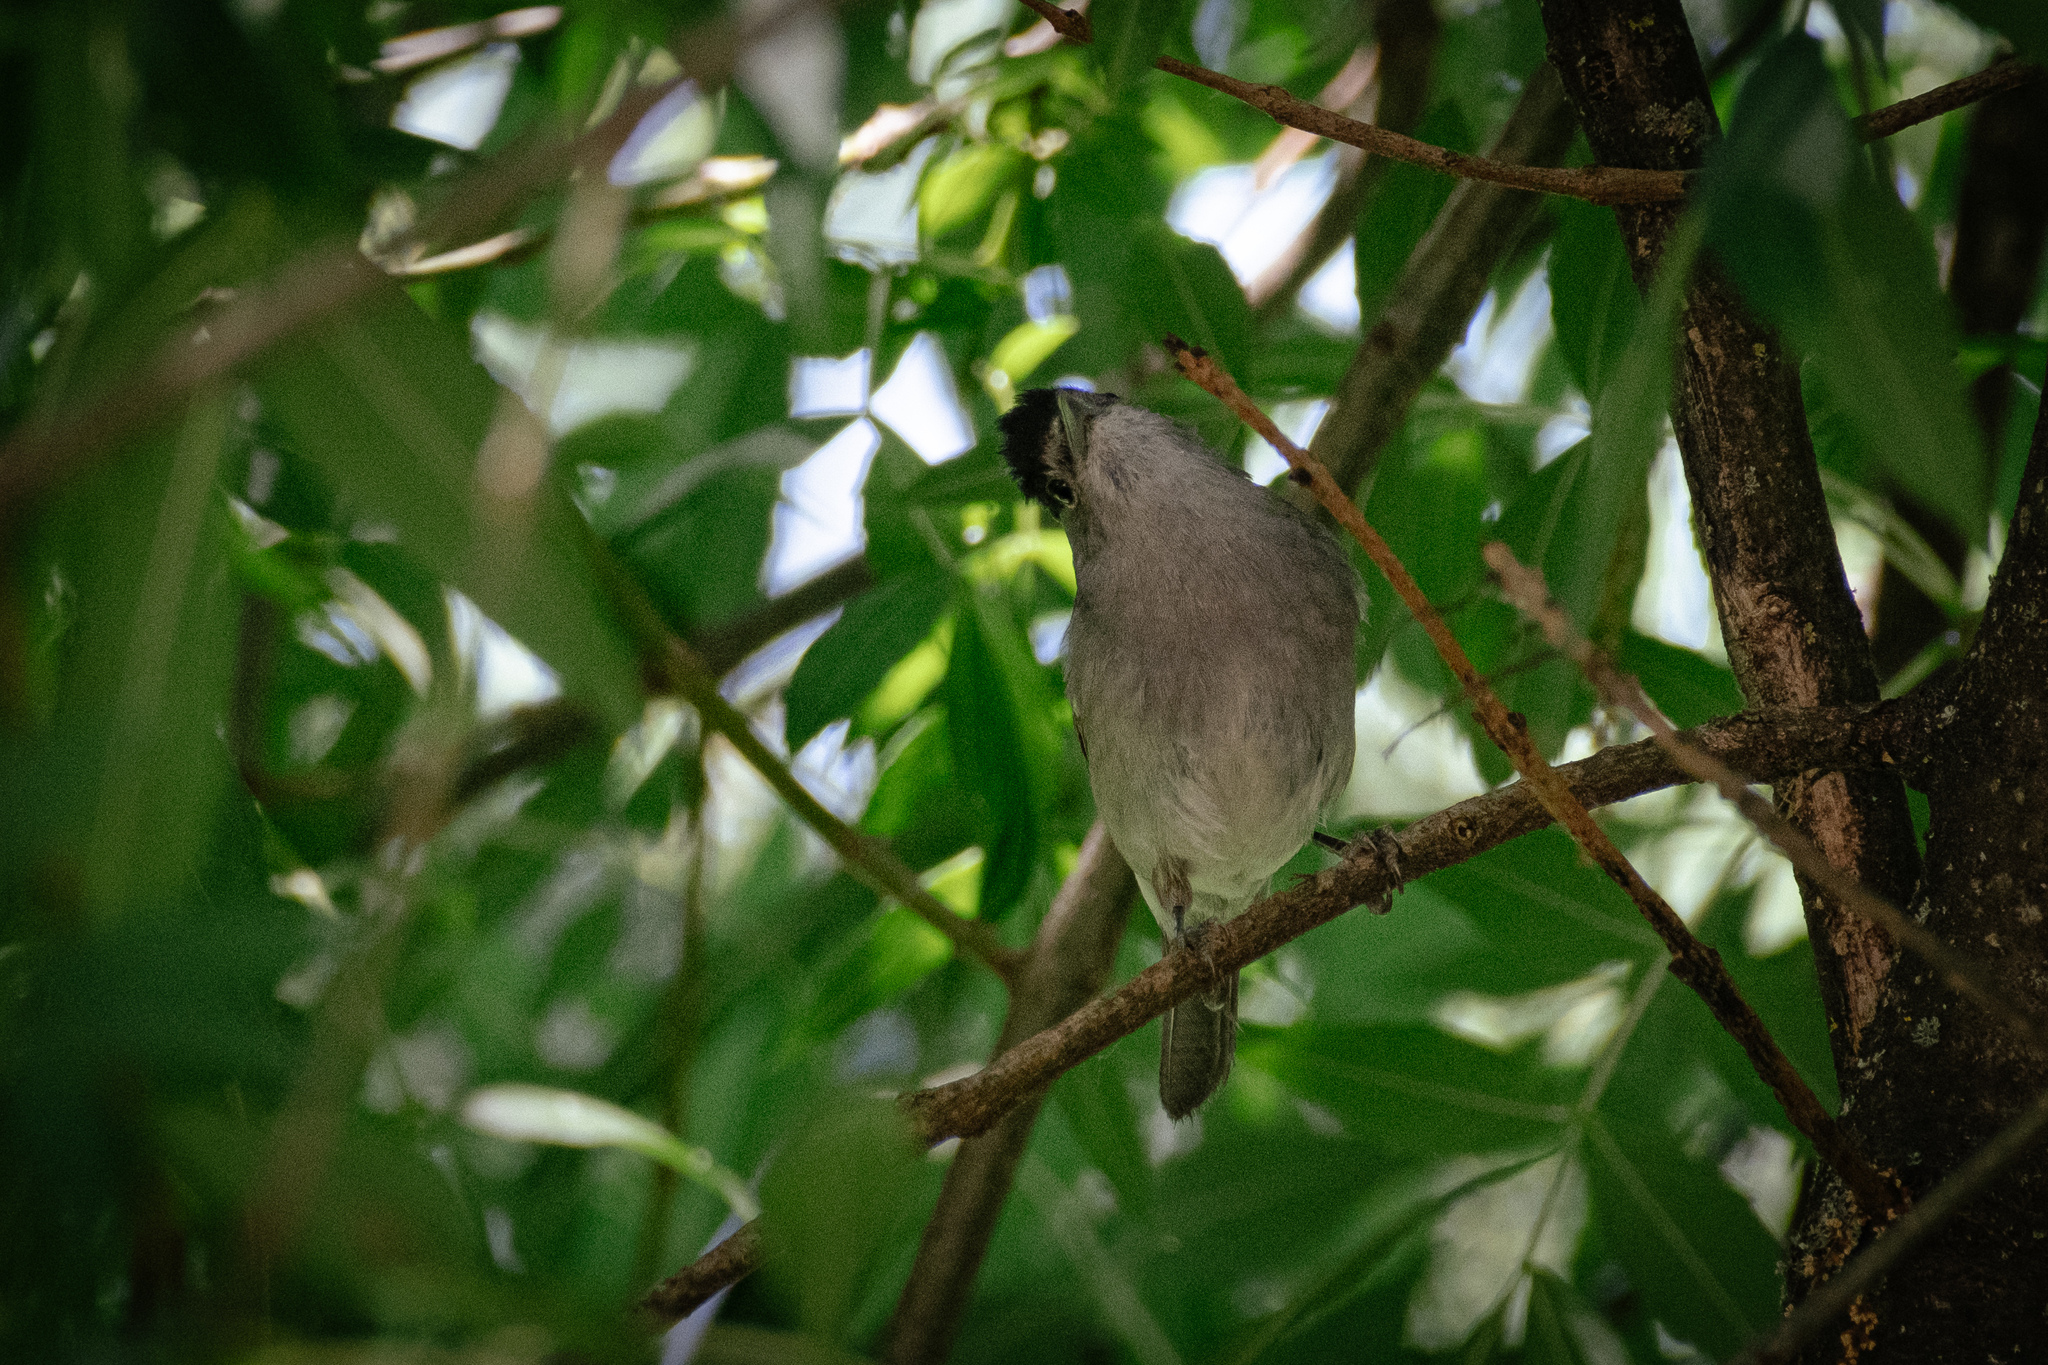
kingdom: Animalia
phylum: Chordata
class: Aves
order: Passeriformes
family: Sylviidae
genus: Sylvia
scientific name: Sylvia atricapilla
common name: Eurasian blackcap
